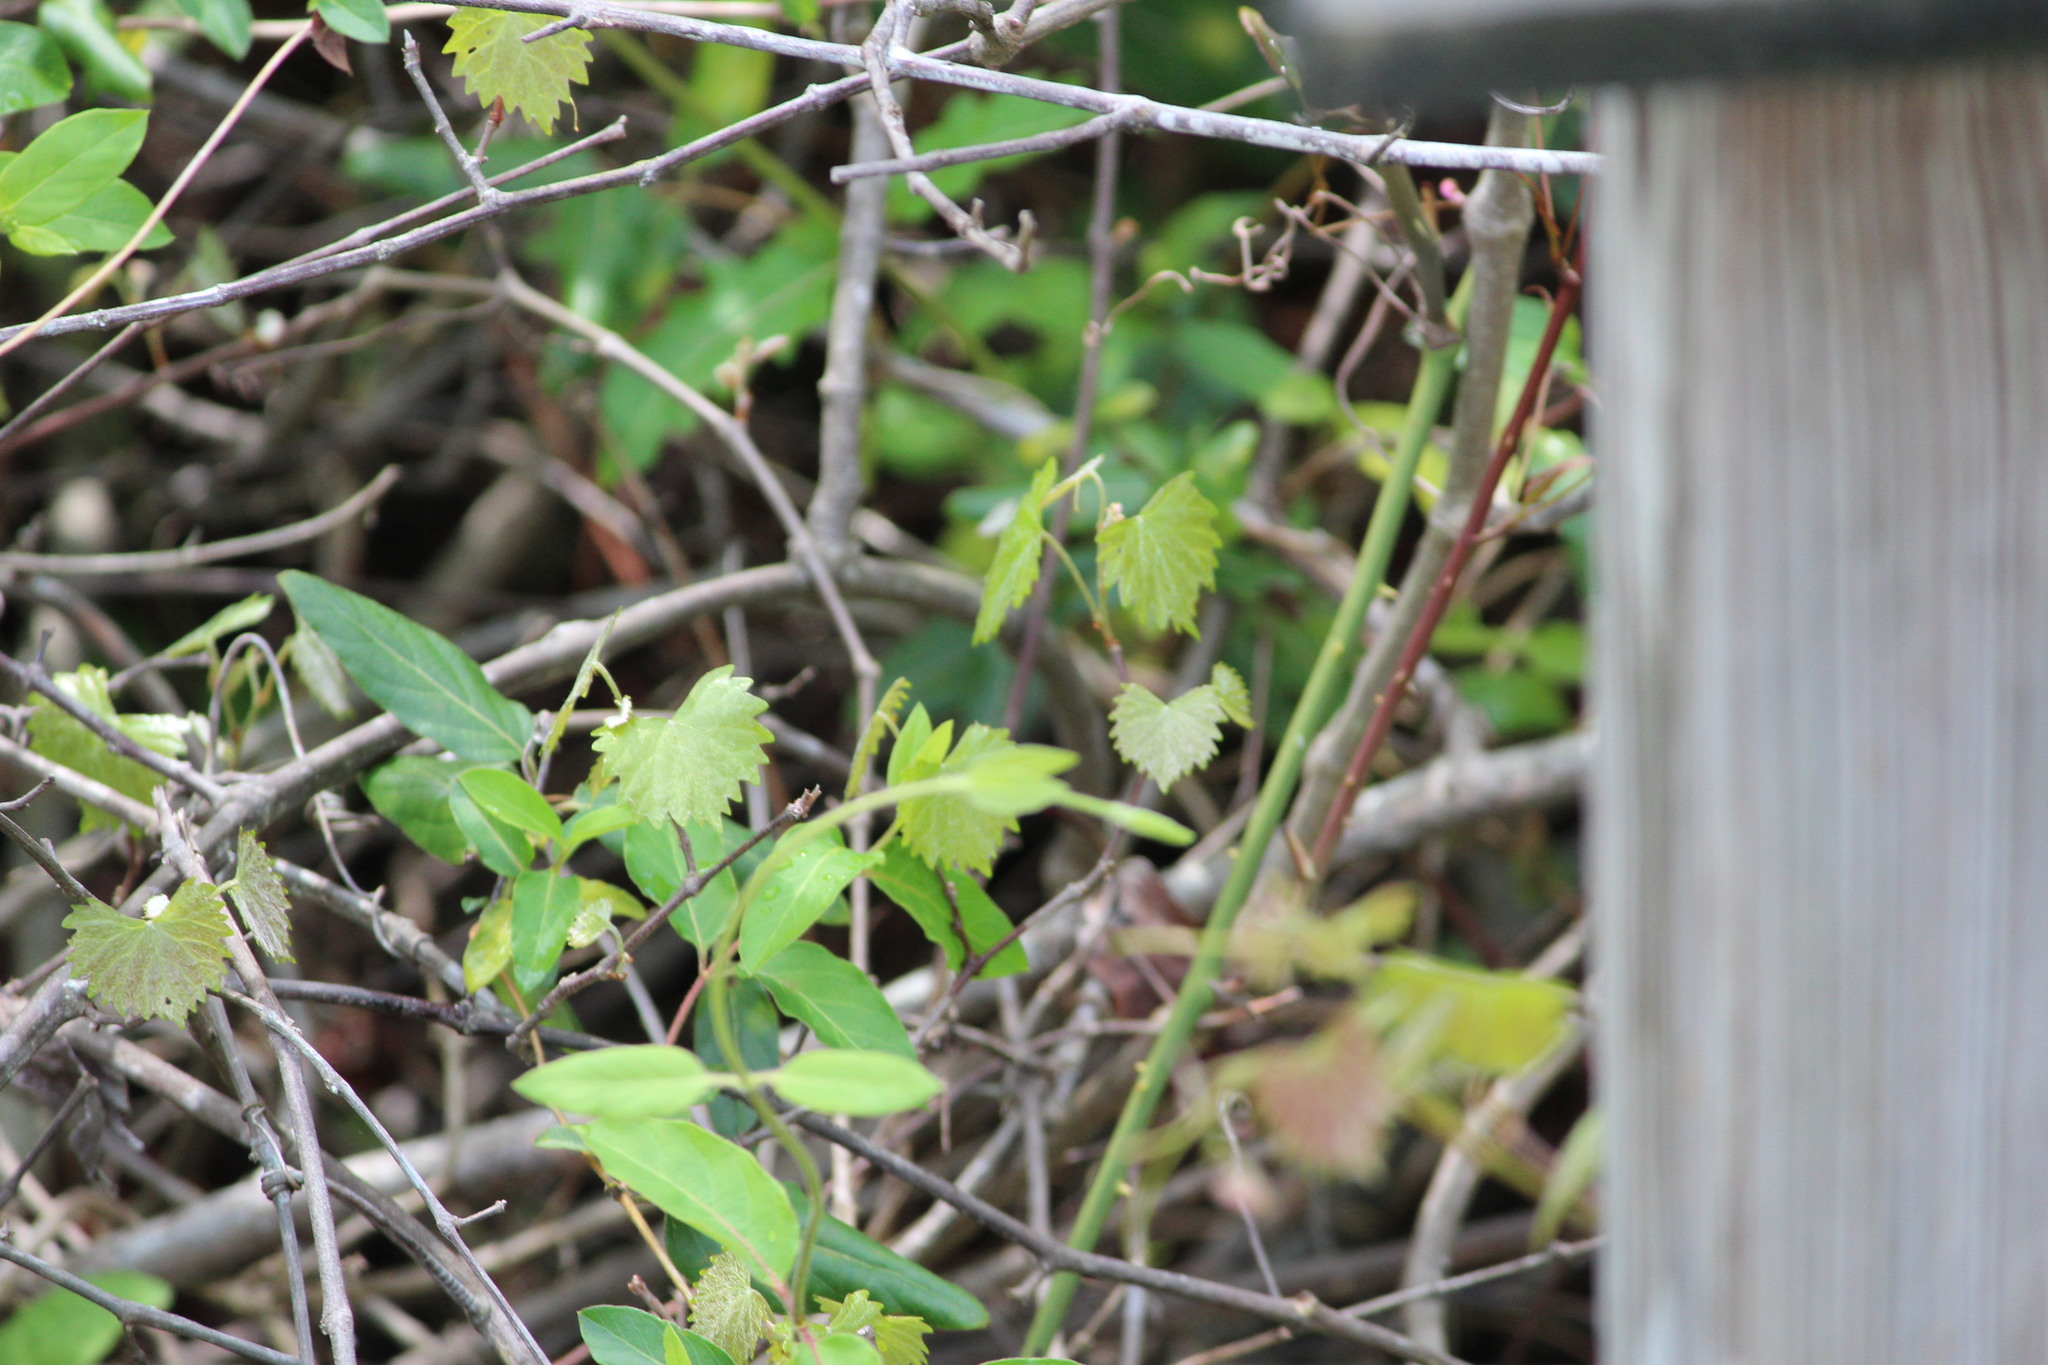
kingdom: Plantae
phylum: Tracheophyta
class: Magnoliopsida
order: Vitales
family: Vitaceae
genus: Vitis
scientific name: Vitis rotundifolia
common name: Muscadine grape
